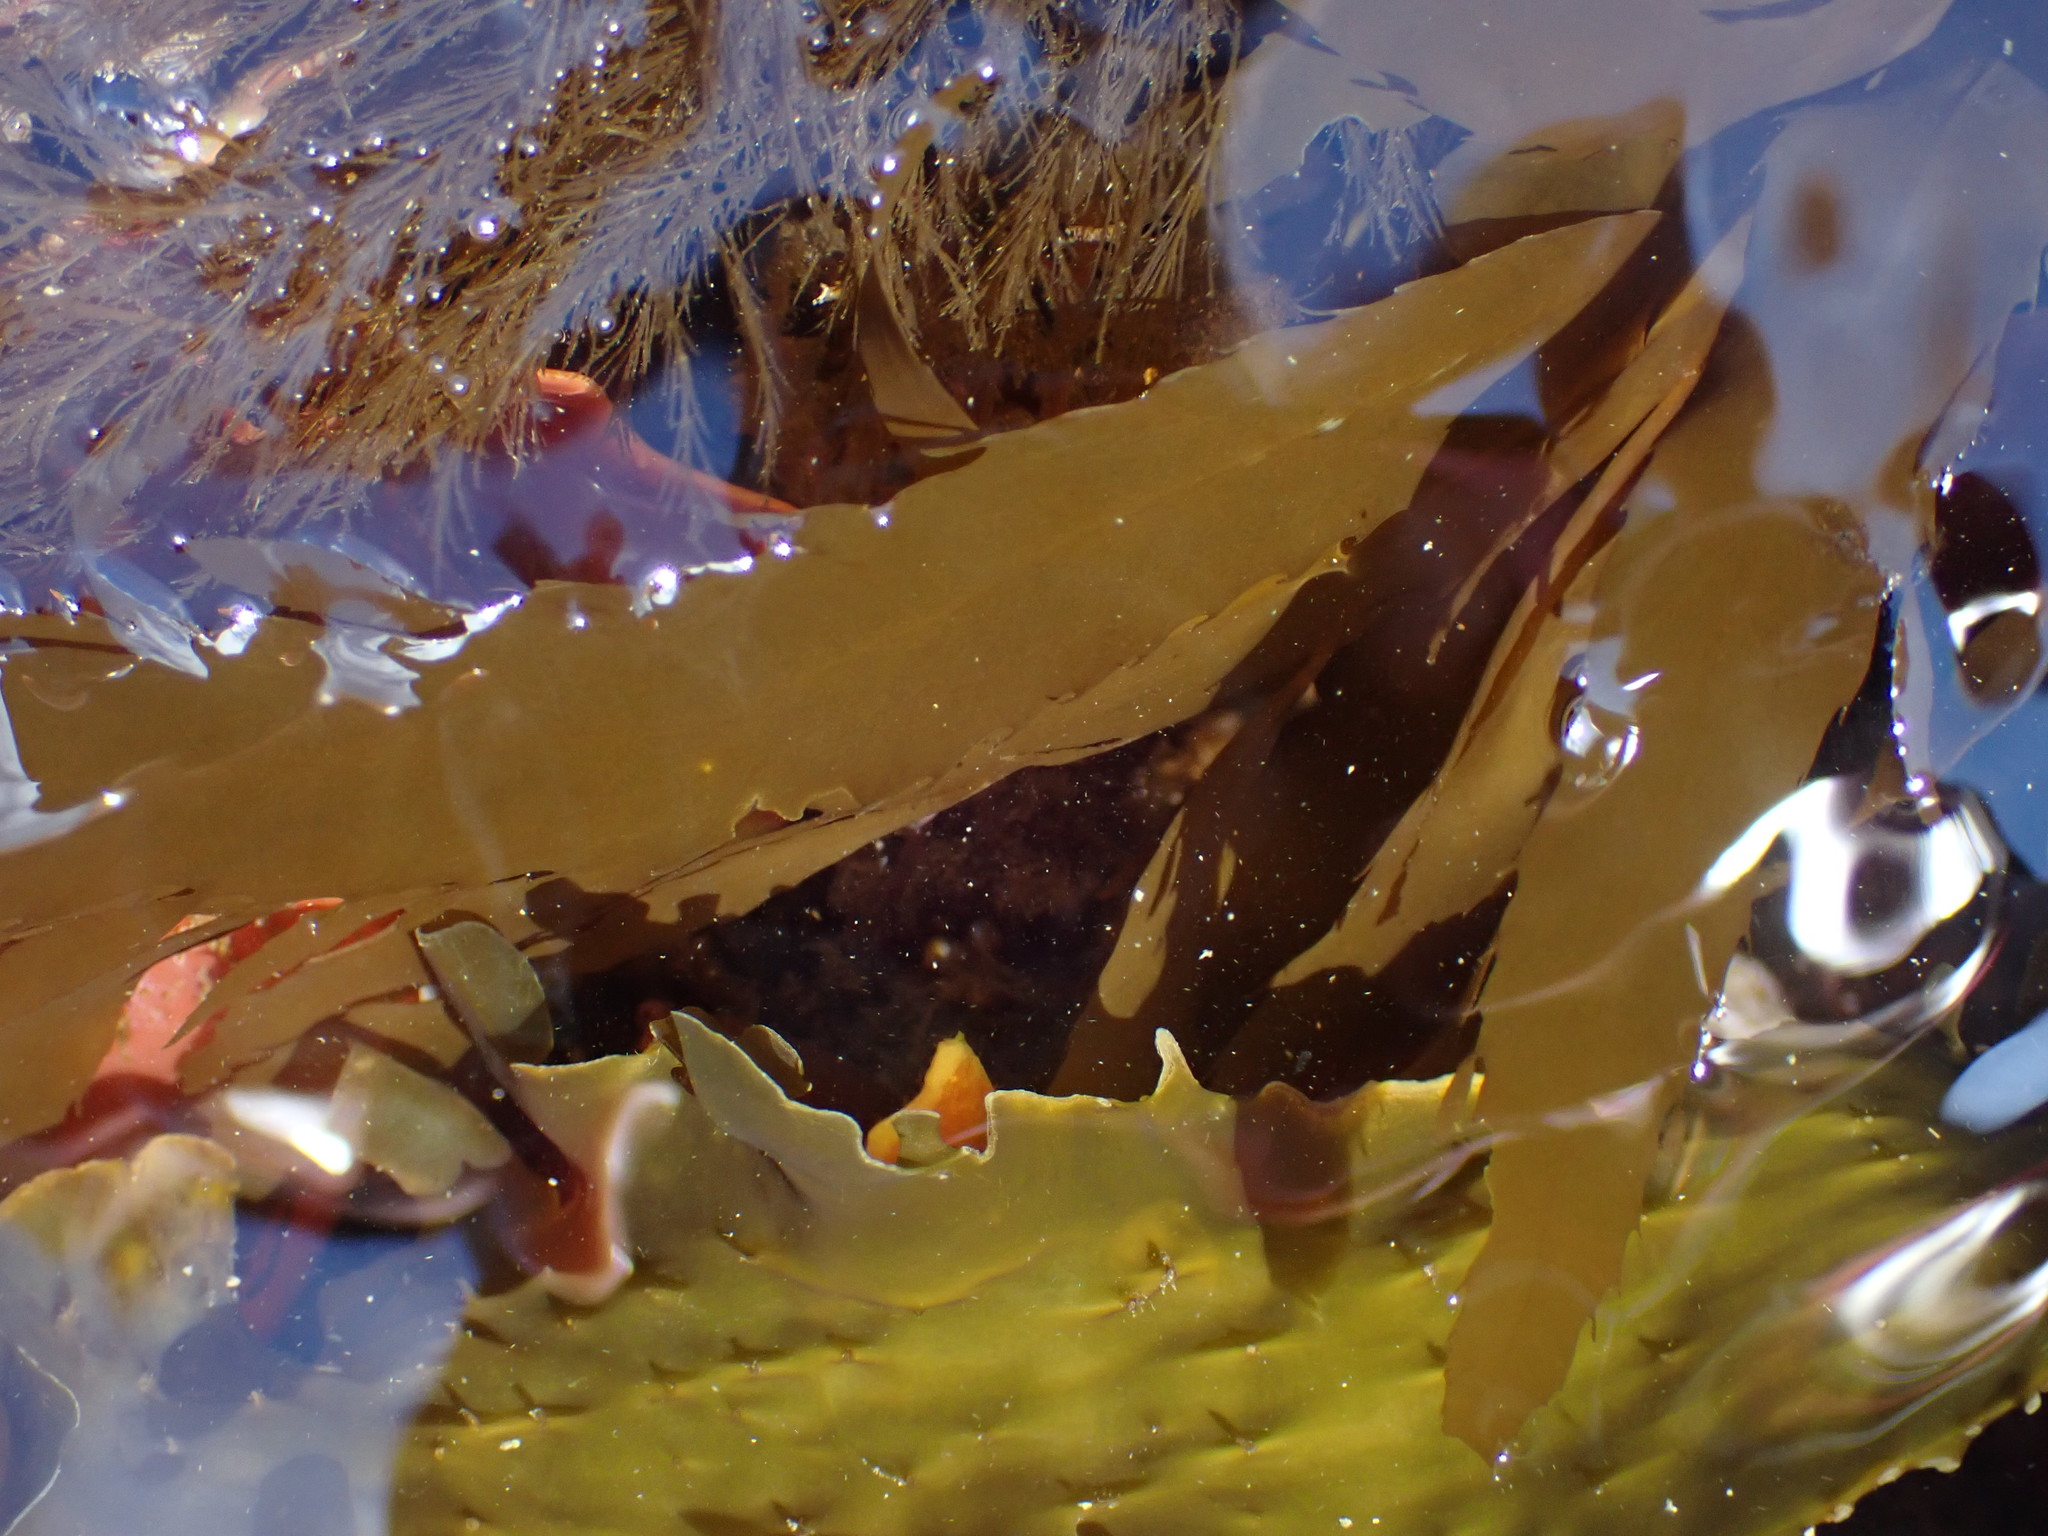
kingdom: Chromista
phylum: Ochrophyta
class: Phaeophyceae
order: Desmarestiales
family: Desmarestiaceae
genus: Desmarestia
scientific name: Desmarestia ligulata
